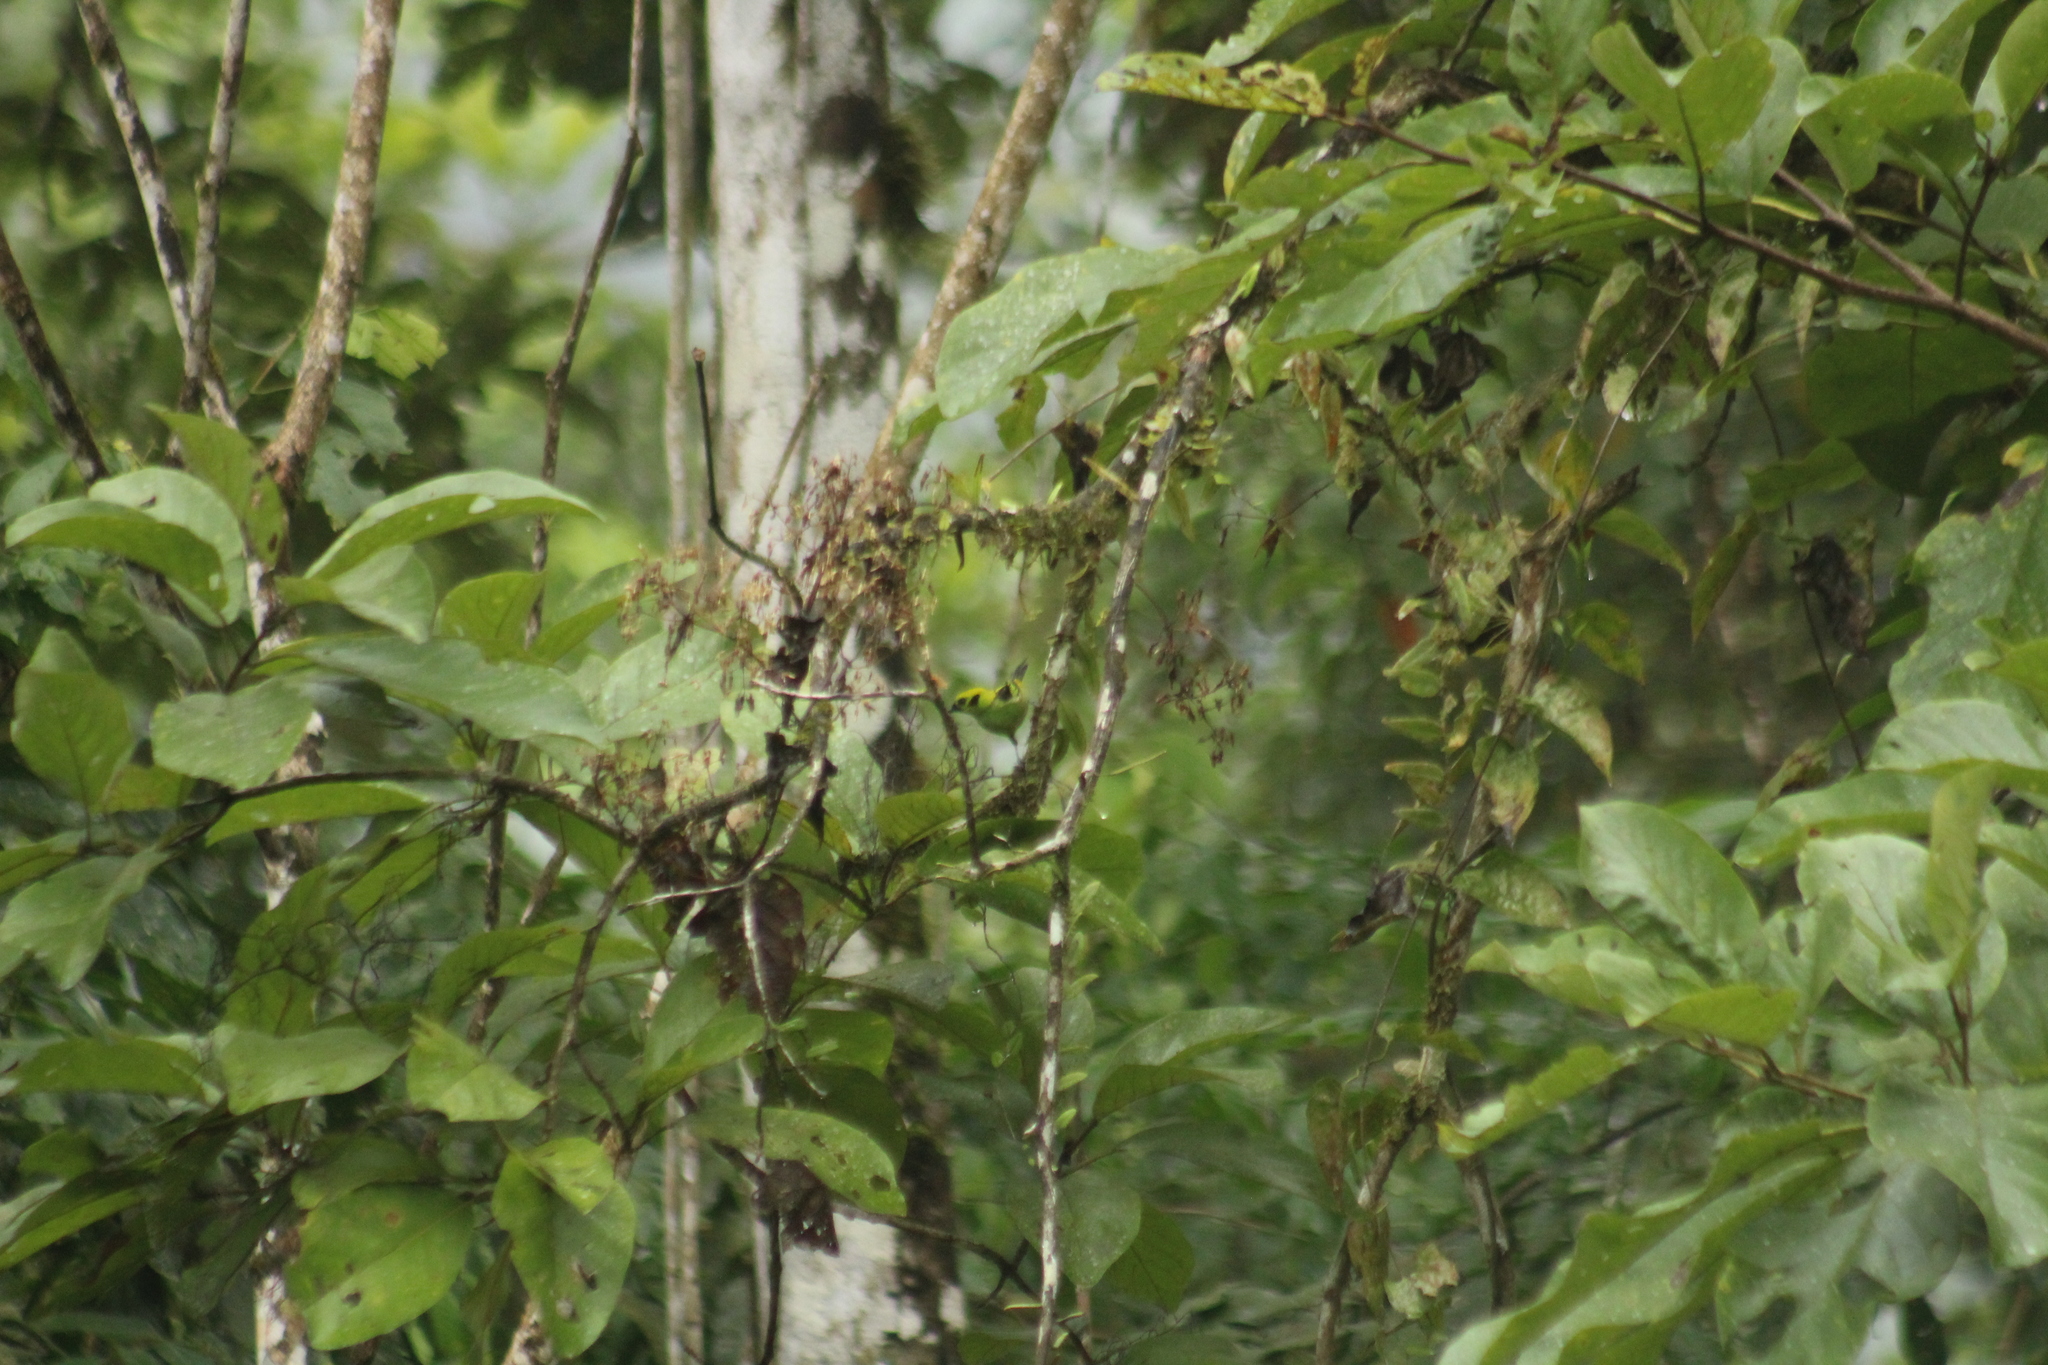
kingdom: Animalia
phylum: Chordata
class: Aves
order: Passeriformes
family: Thraupidae
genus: Tangara
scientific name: Tangara florida
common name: Emerald tanager
